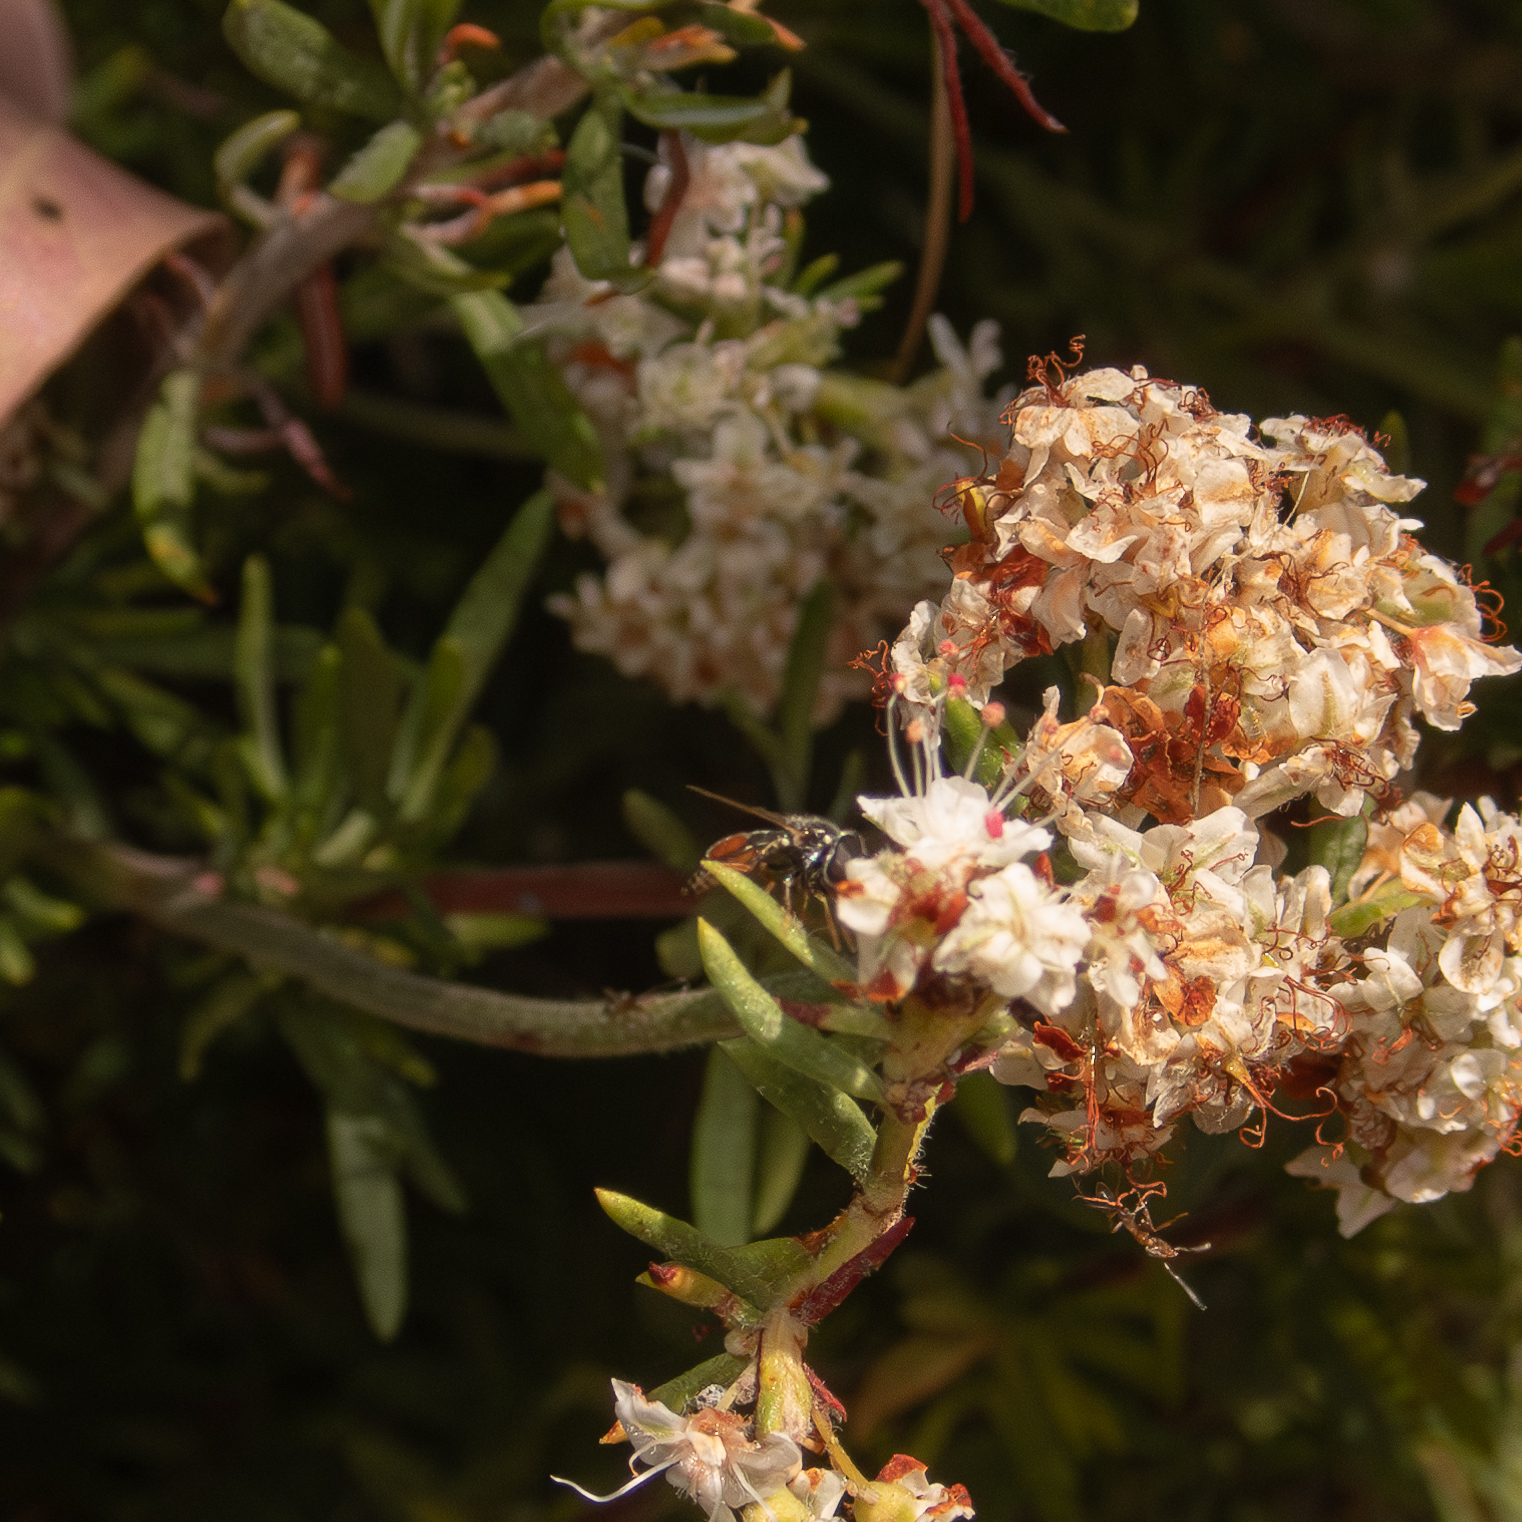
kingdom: Animalia
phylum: Arthropoda
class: Insecta
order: Diptera
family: Syrphidae
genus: Paragus
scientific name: Paragus haemorrhous
